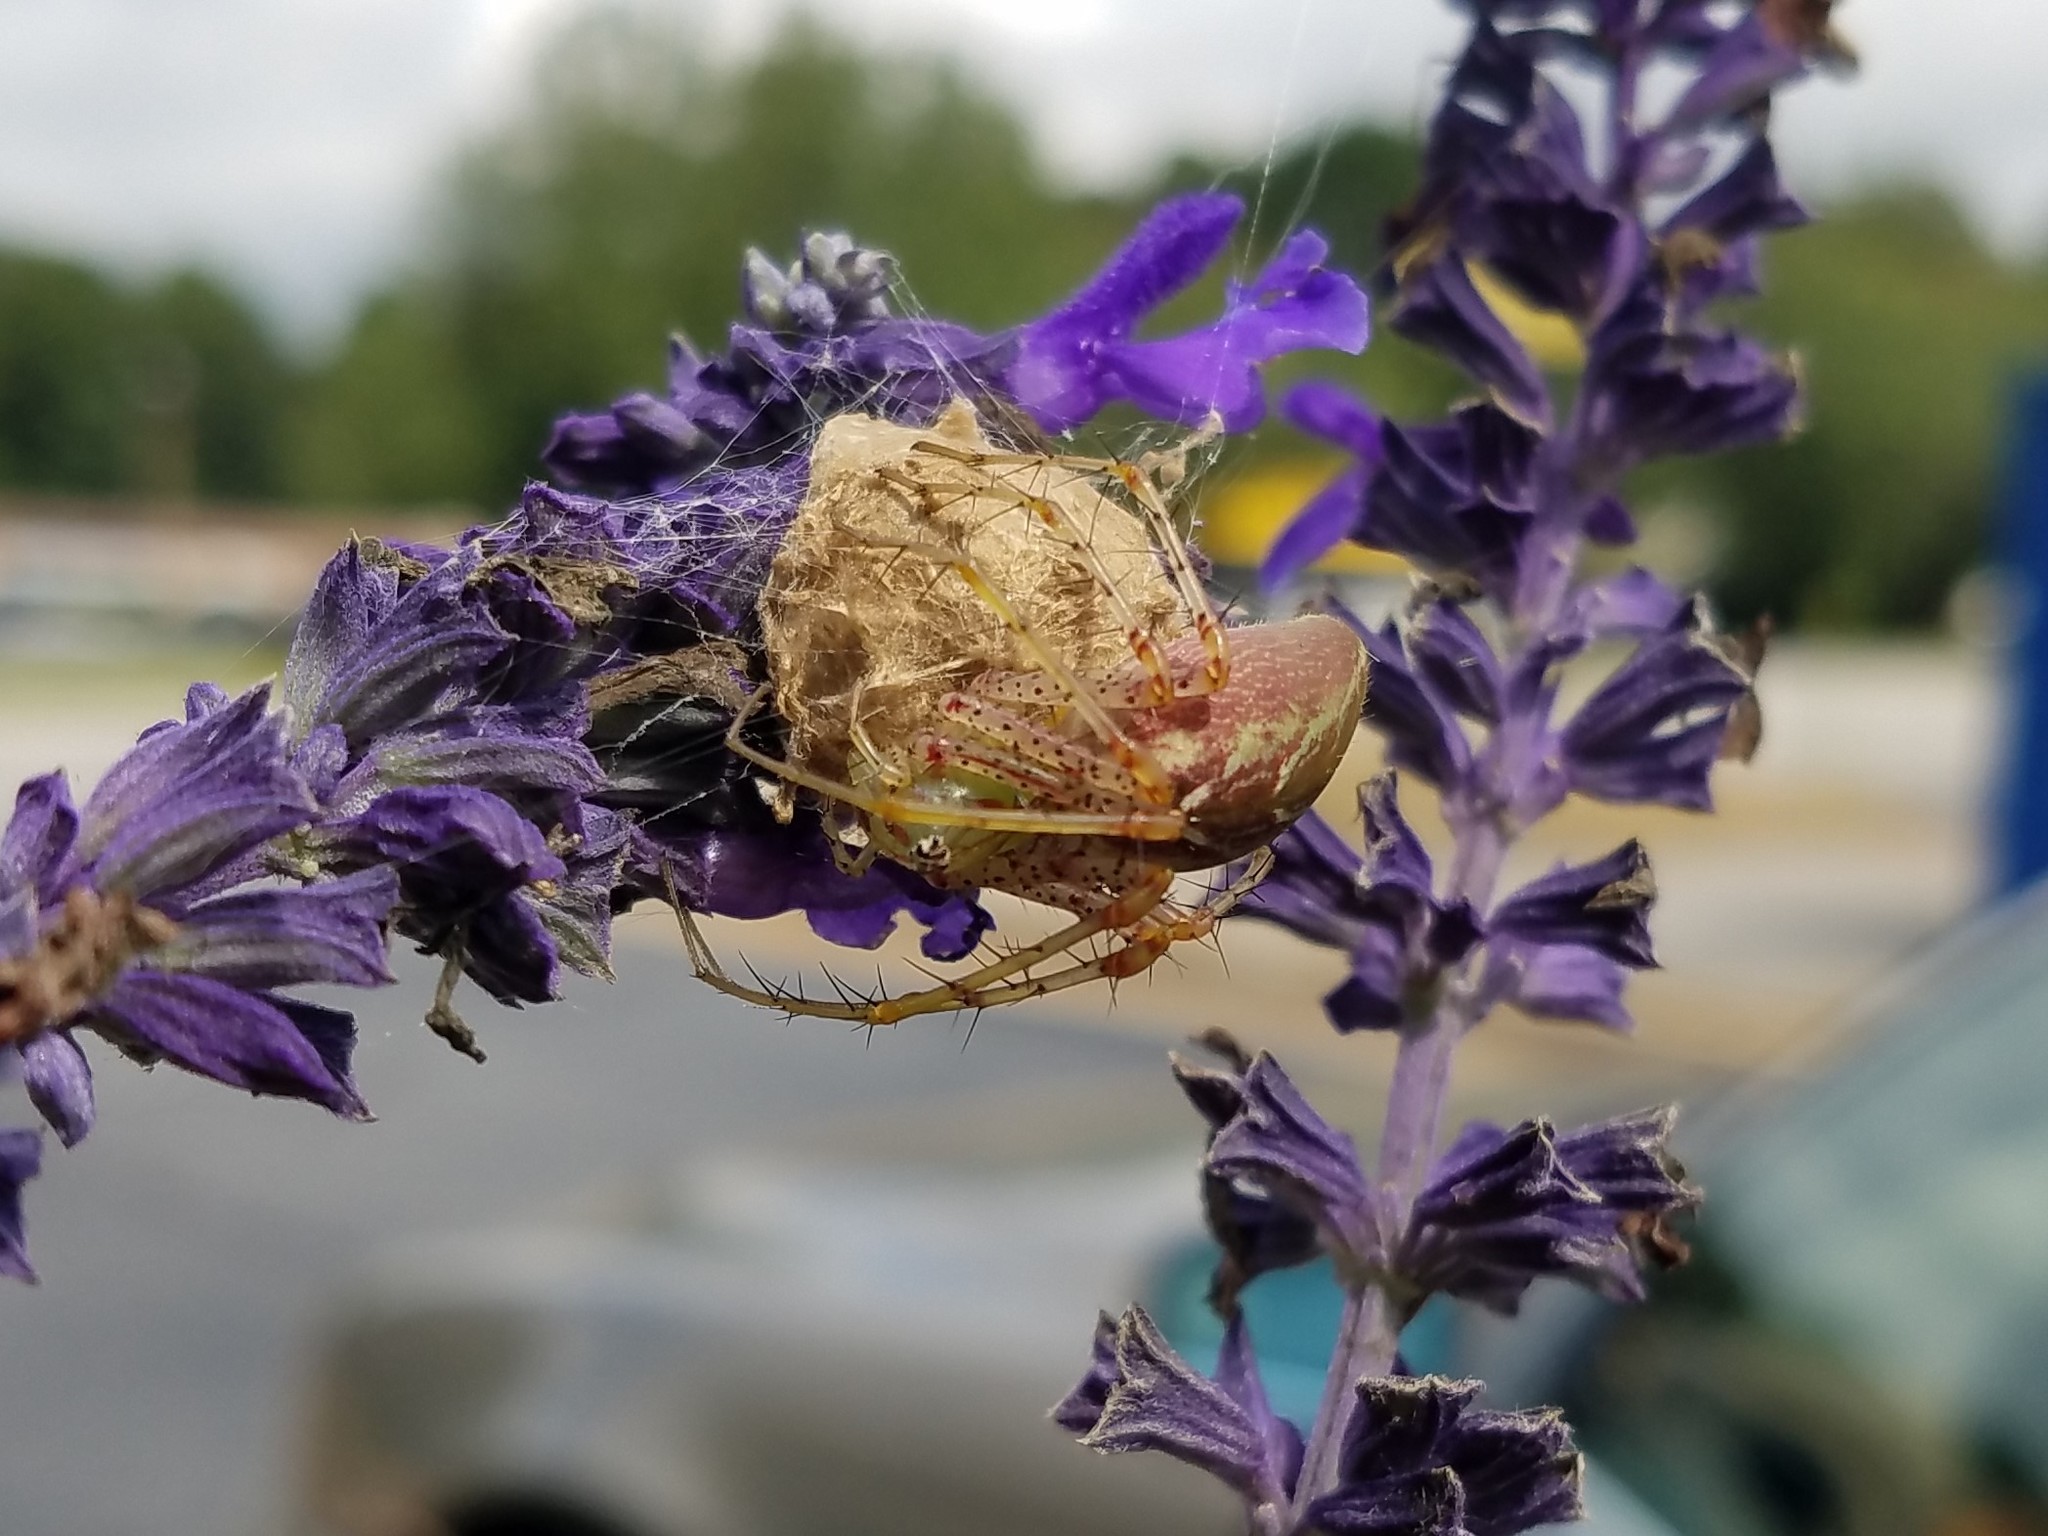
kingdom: Animalia
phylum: Arthropoda
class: Arachnida
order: Araneae
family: Oxyopidae
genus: Peucetia
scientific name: Peucetia viridans
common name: Lynx spiders
